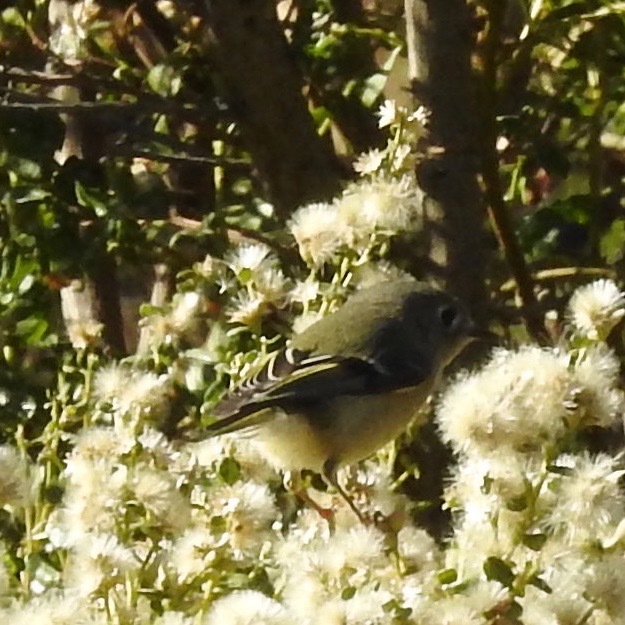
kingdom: Animalia
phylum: Chordata
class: Aves
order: Passeriformes
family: Regulidae
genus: Regulus
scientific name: Regulus calendula
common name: Ruby-crowned kinglet
